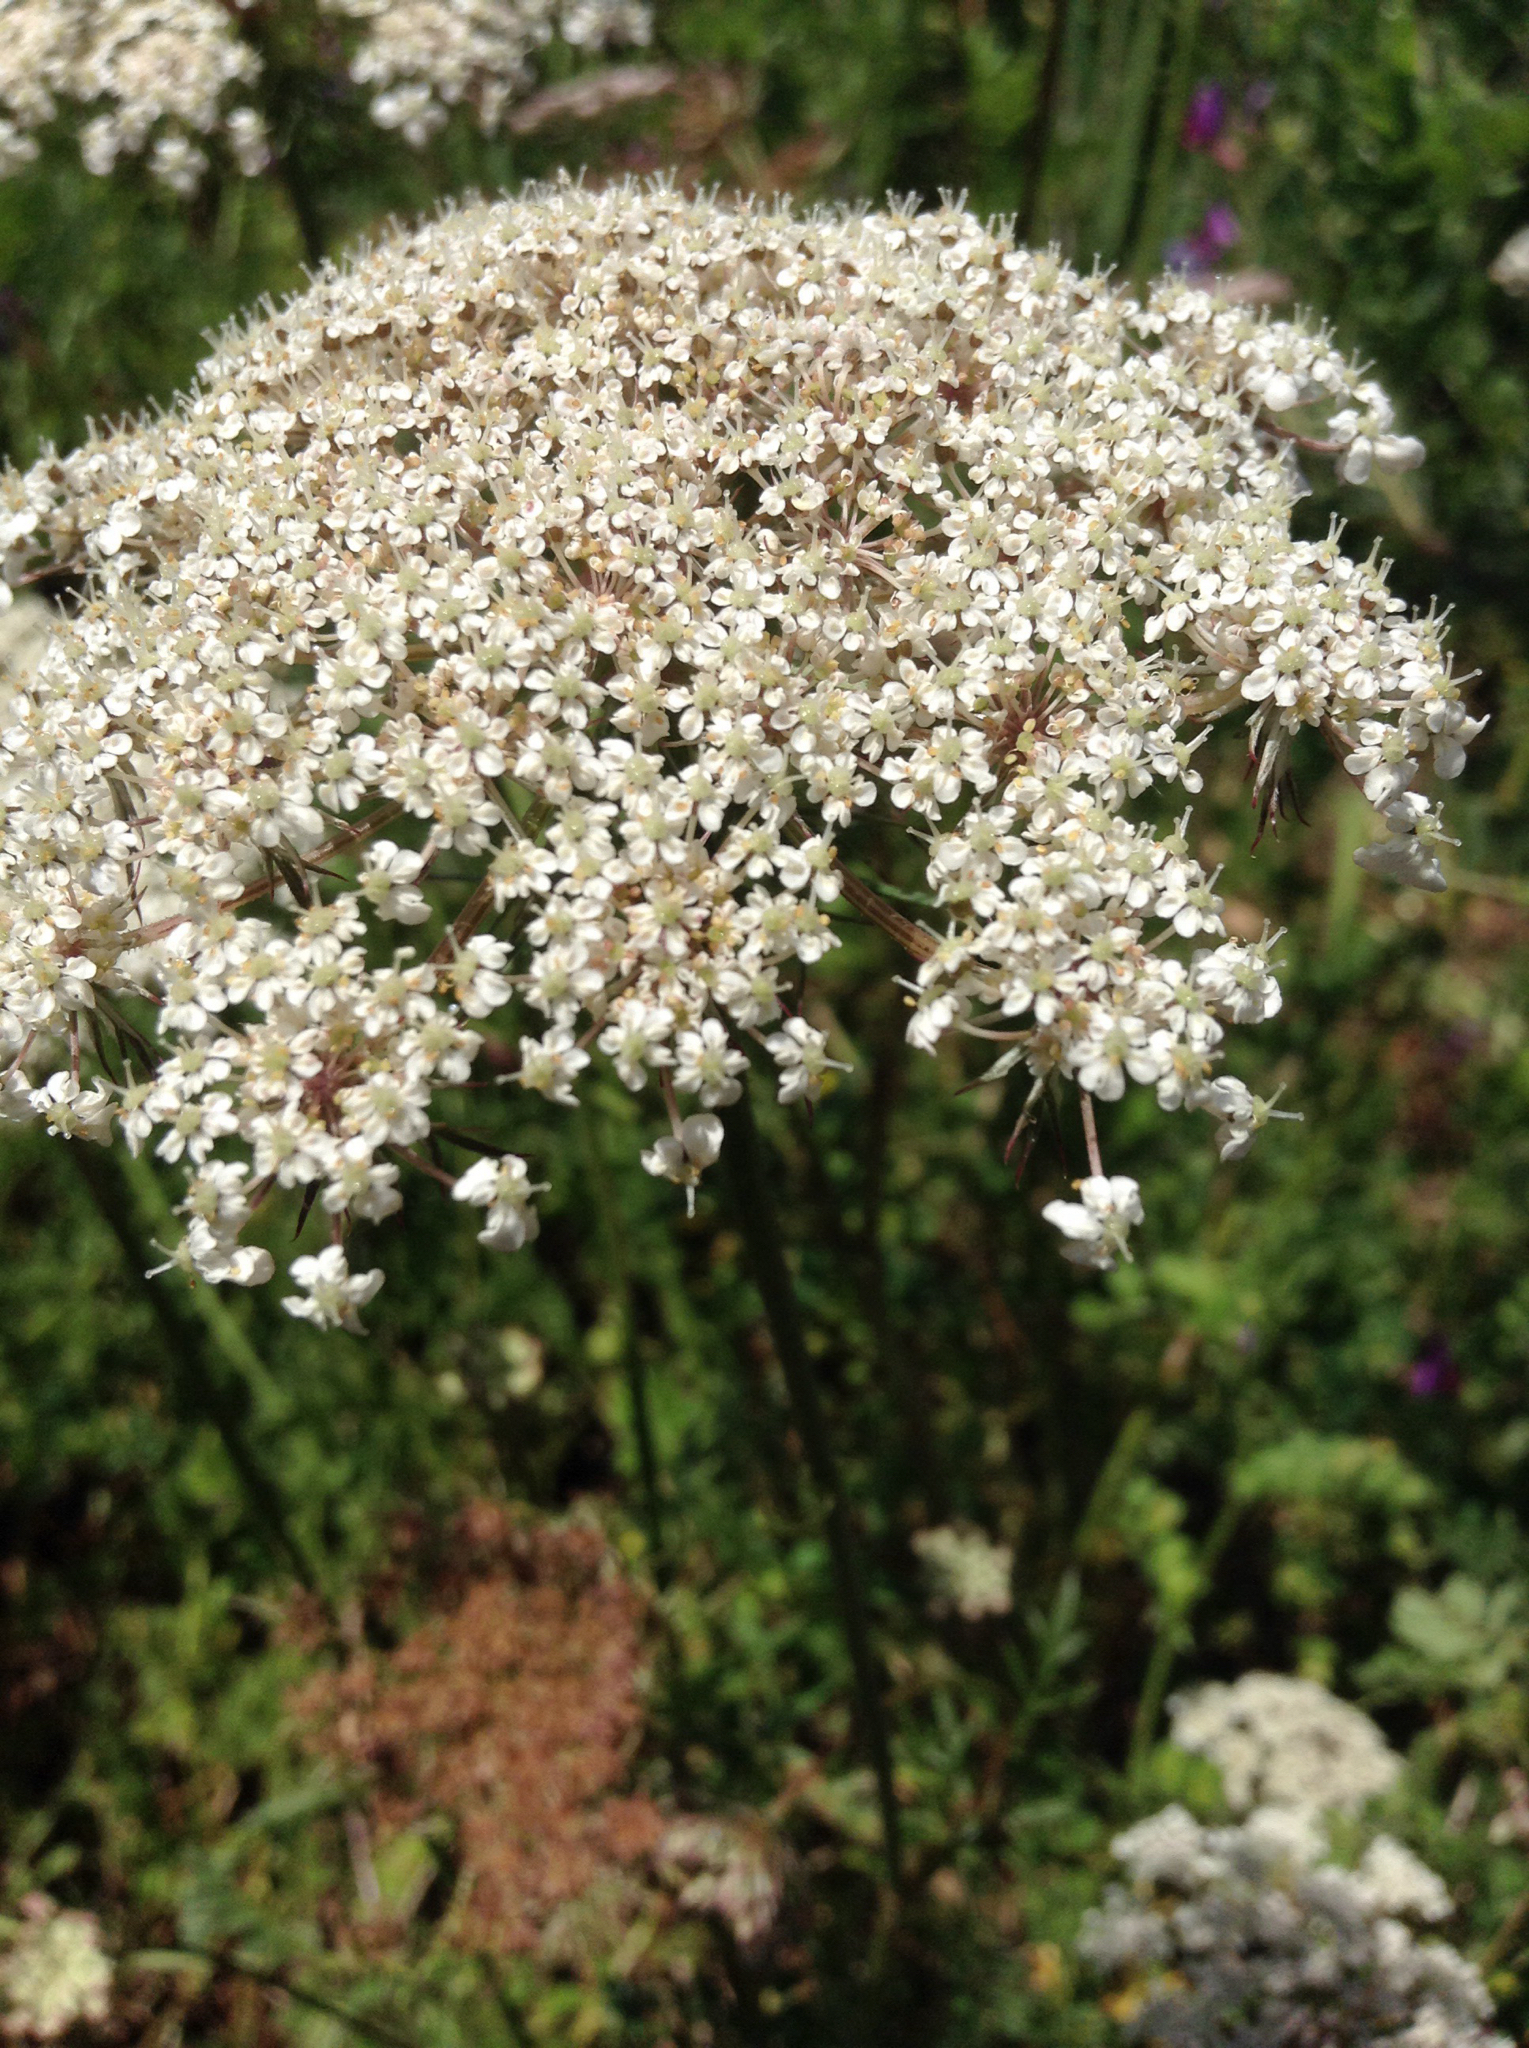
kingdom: Plantae
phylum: Tracheophyta
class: Magnoliopsida
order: Apiales
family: Apiaceae
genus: Daucus
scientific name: Daucus carota
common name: Wild carrot
